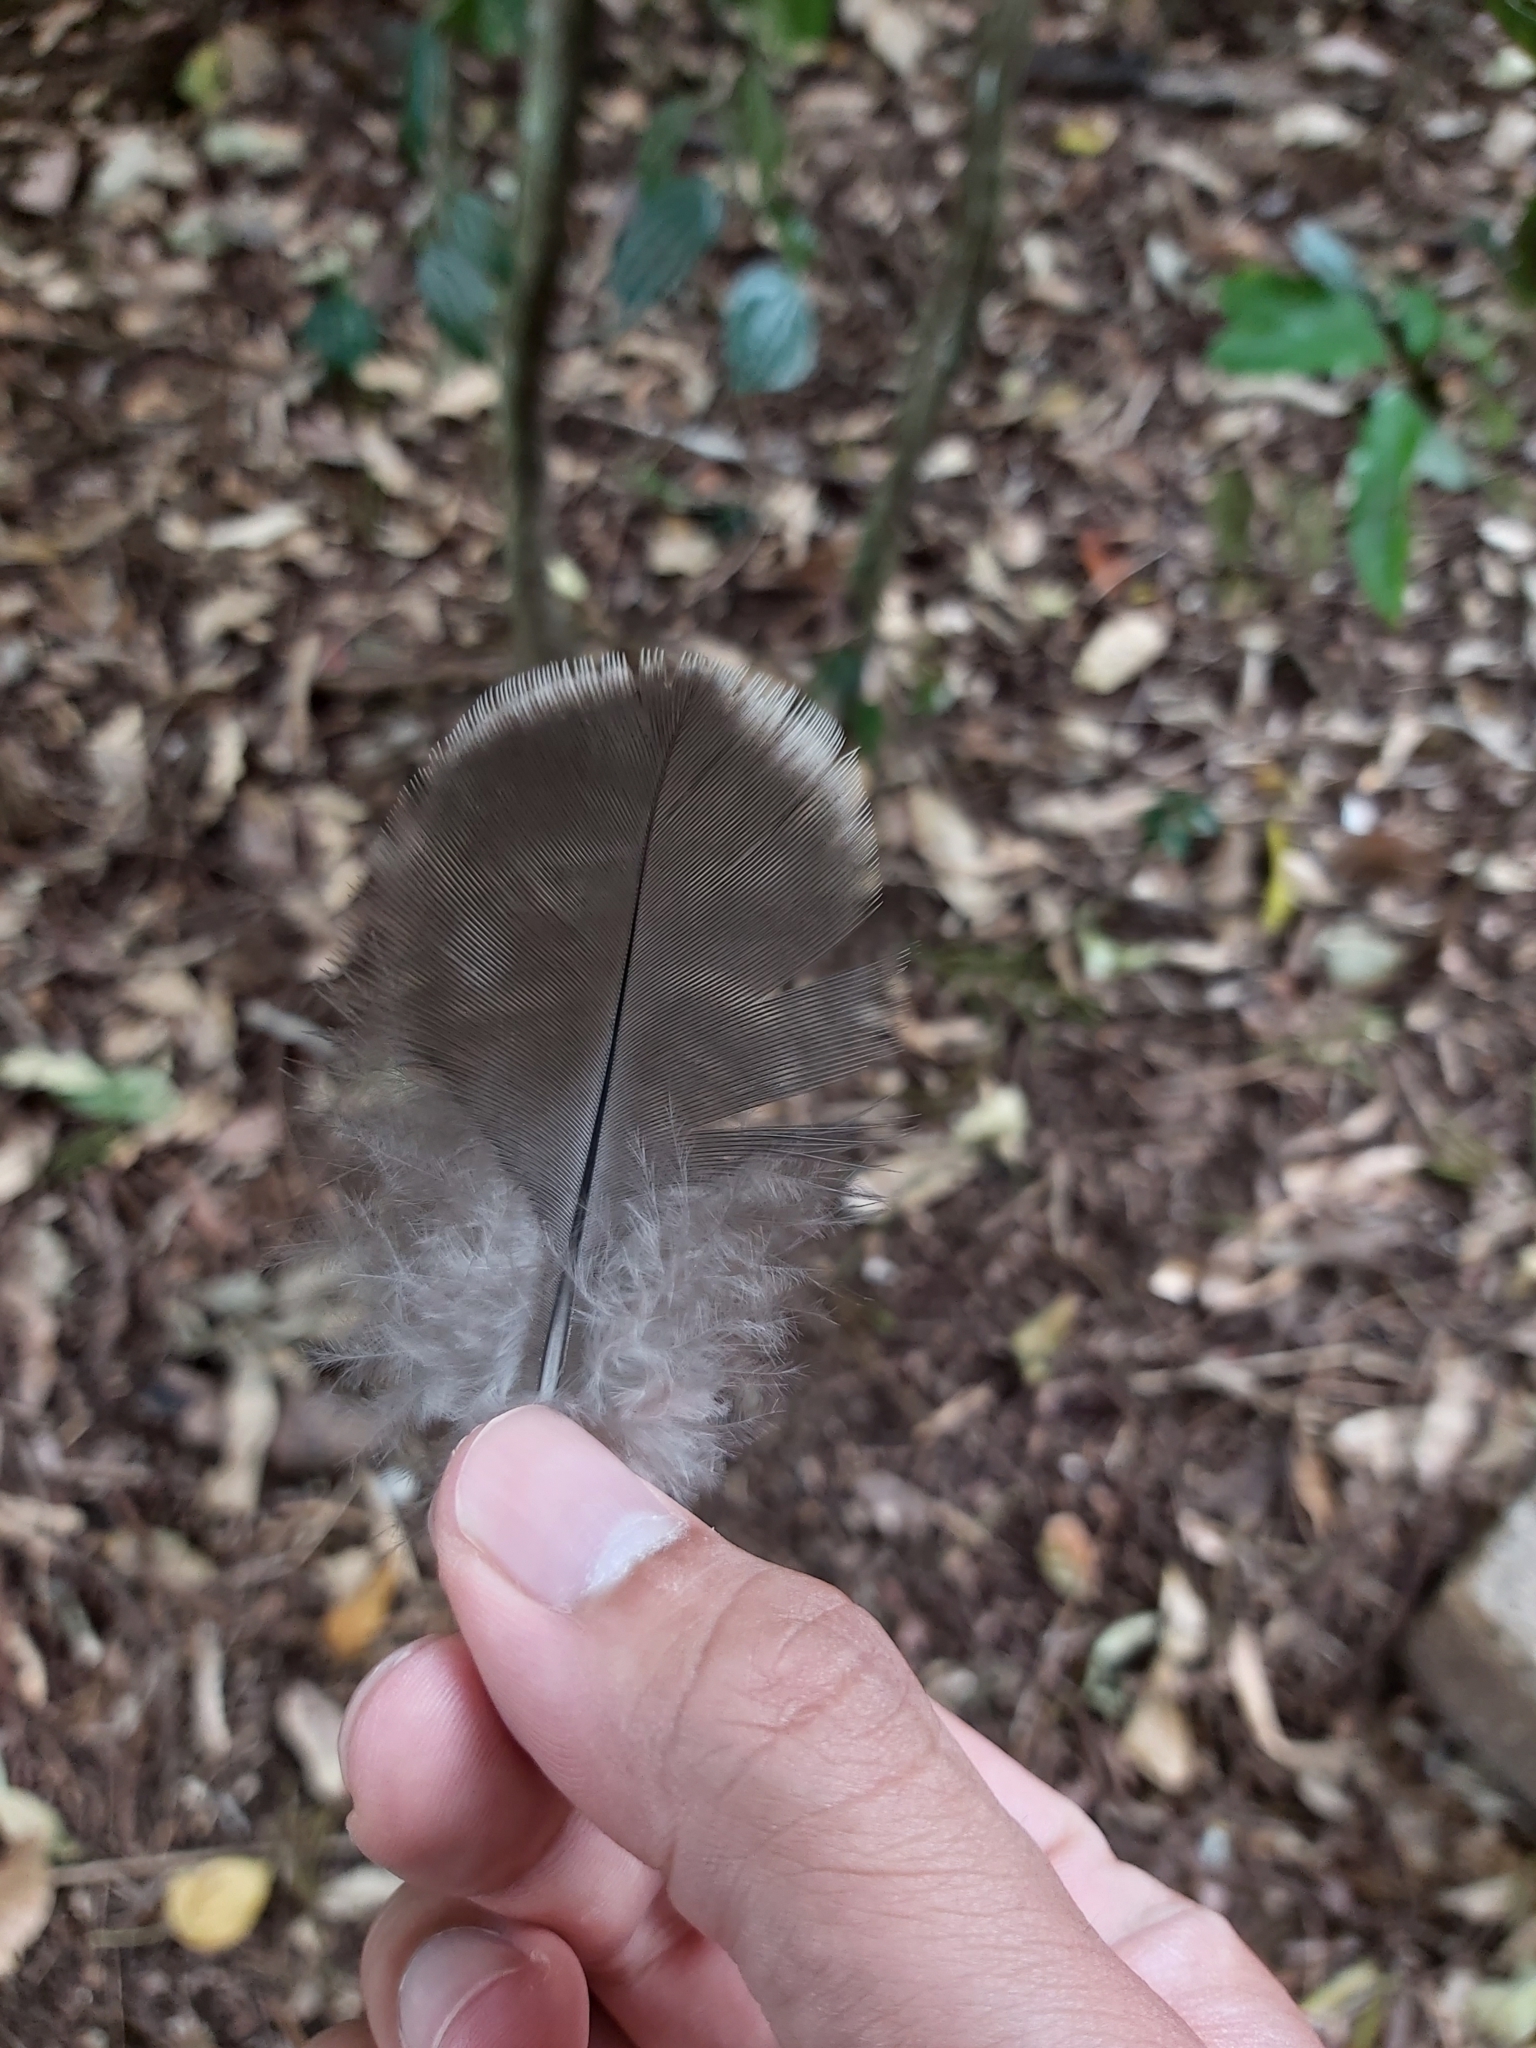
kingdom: Animalia
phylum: Chordata
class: Aves
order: Galliformes
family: Megapodiidae
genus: Alectura
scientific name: Alectura lathami
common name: Australian brushturkey
